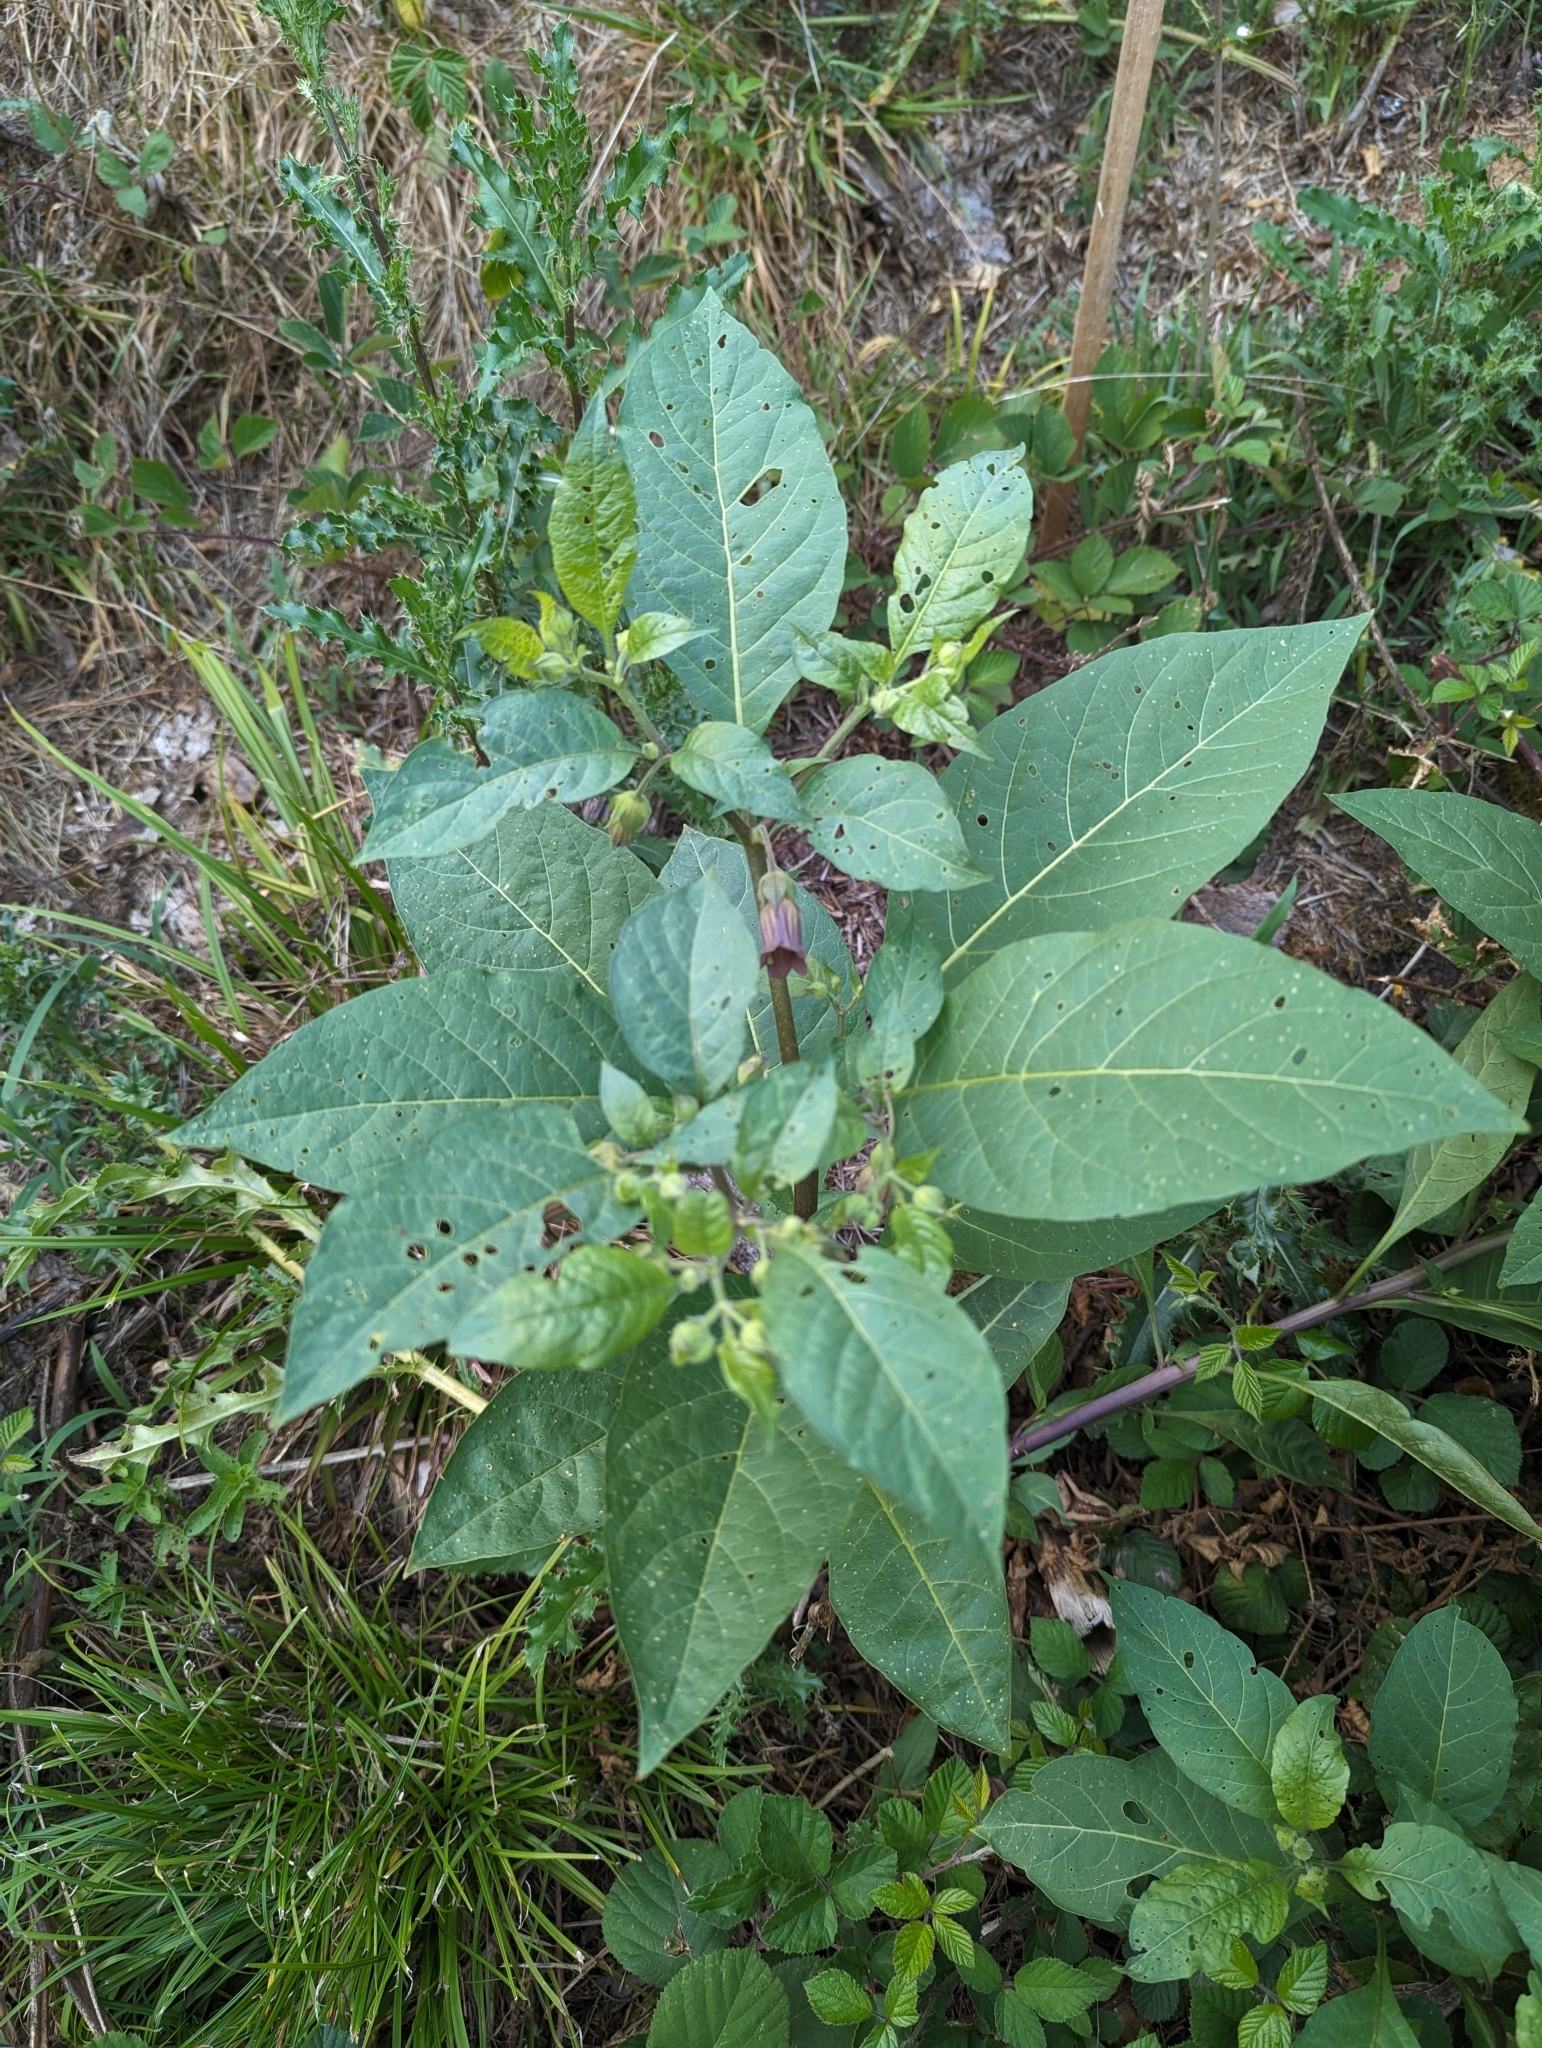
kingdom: Plantae
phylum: Tracheophyta
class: Magnoliopsida
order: Solanales
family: Solanaceae
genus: Atropa
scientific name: Atropa belladonna
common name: Deadly nightshade
